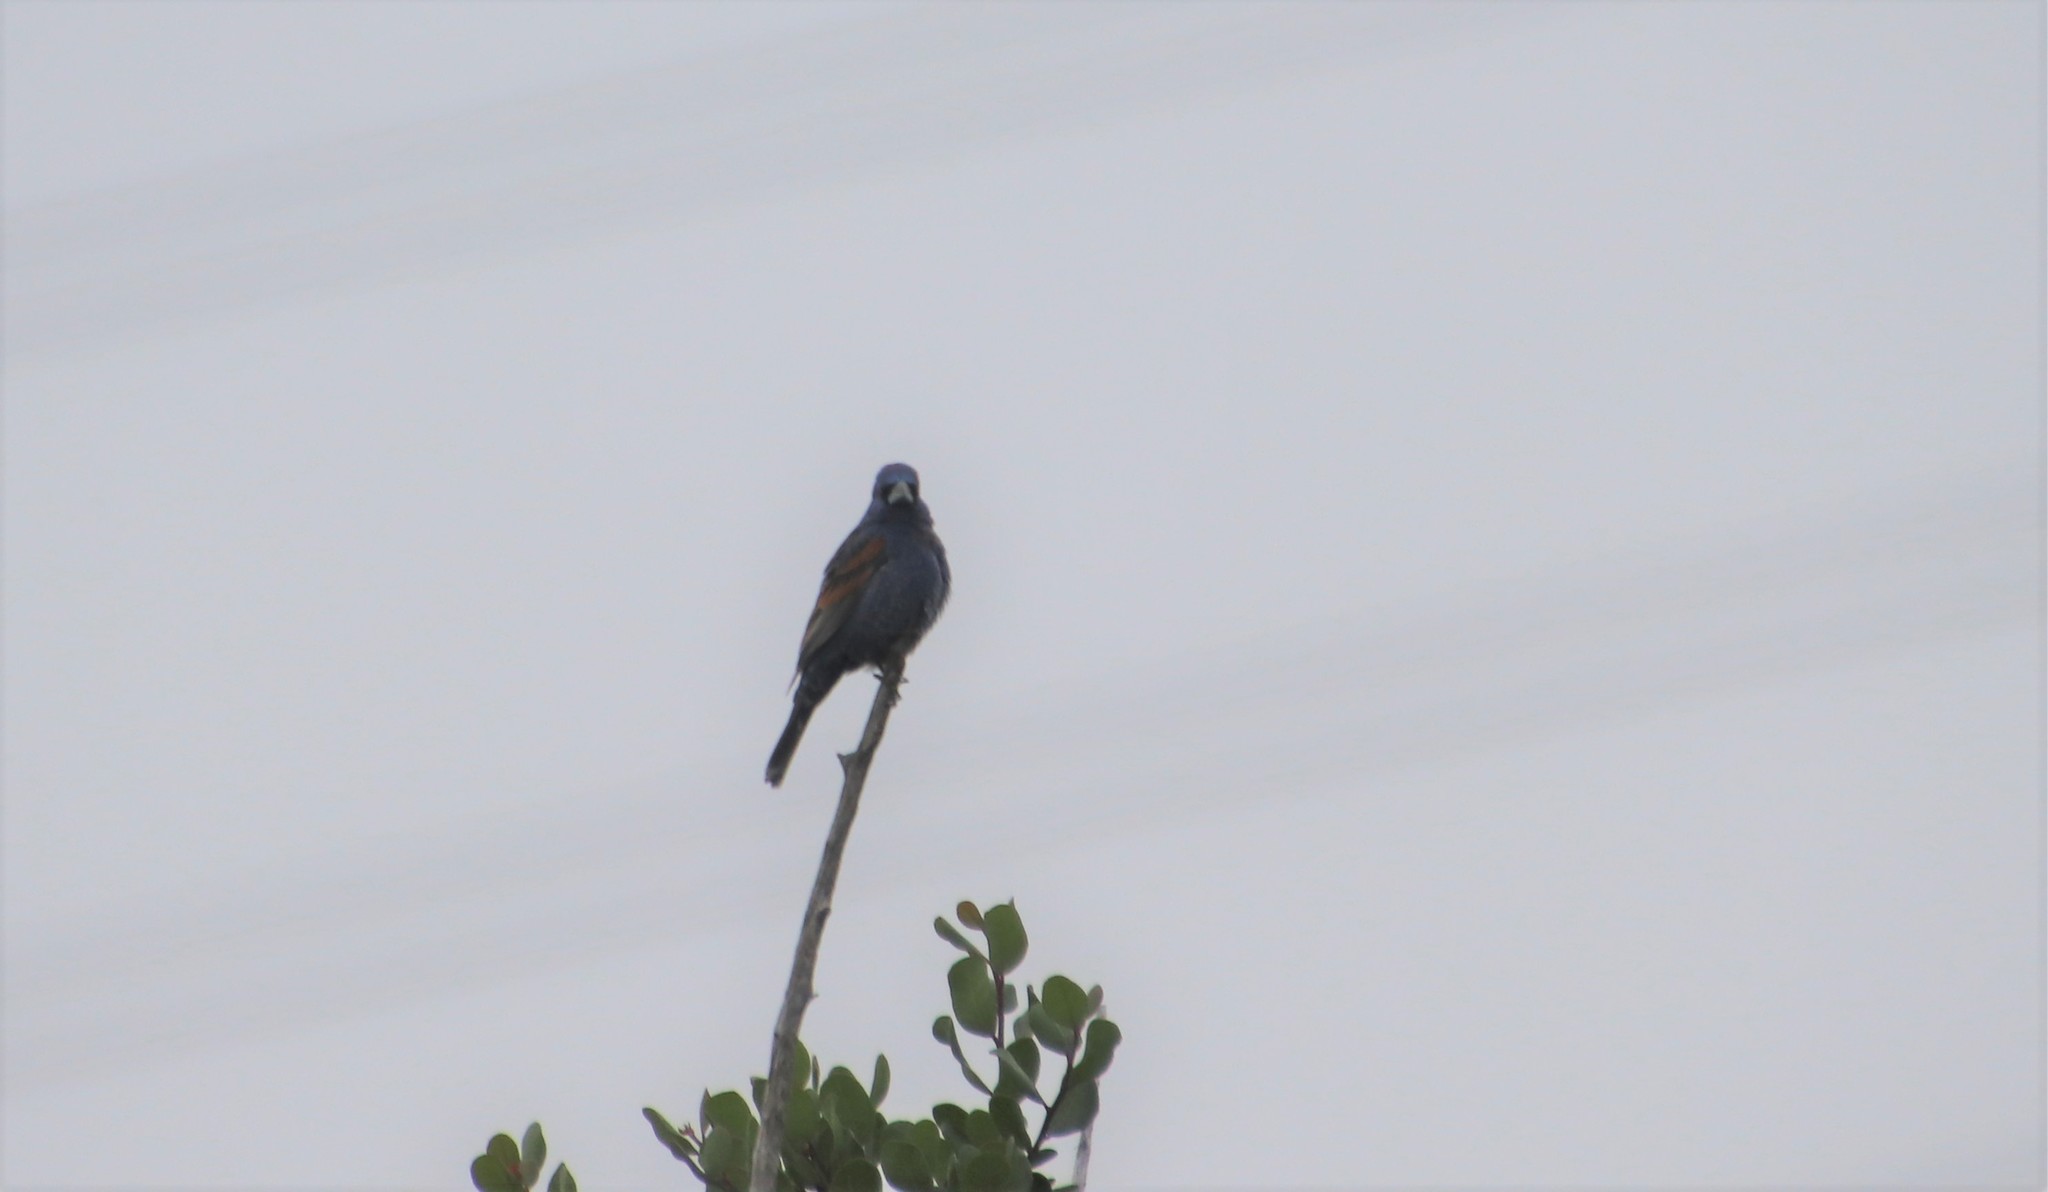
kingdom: Animalia
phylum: Chordata
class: Aves
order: Passeriformes
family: Cardinalidae
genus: Passerina
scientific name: Passerina caerulea
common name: Blue grosbeak
